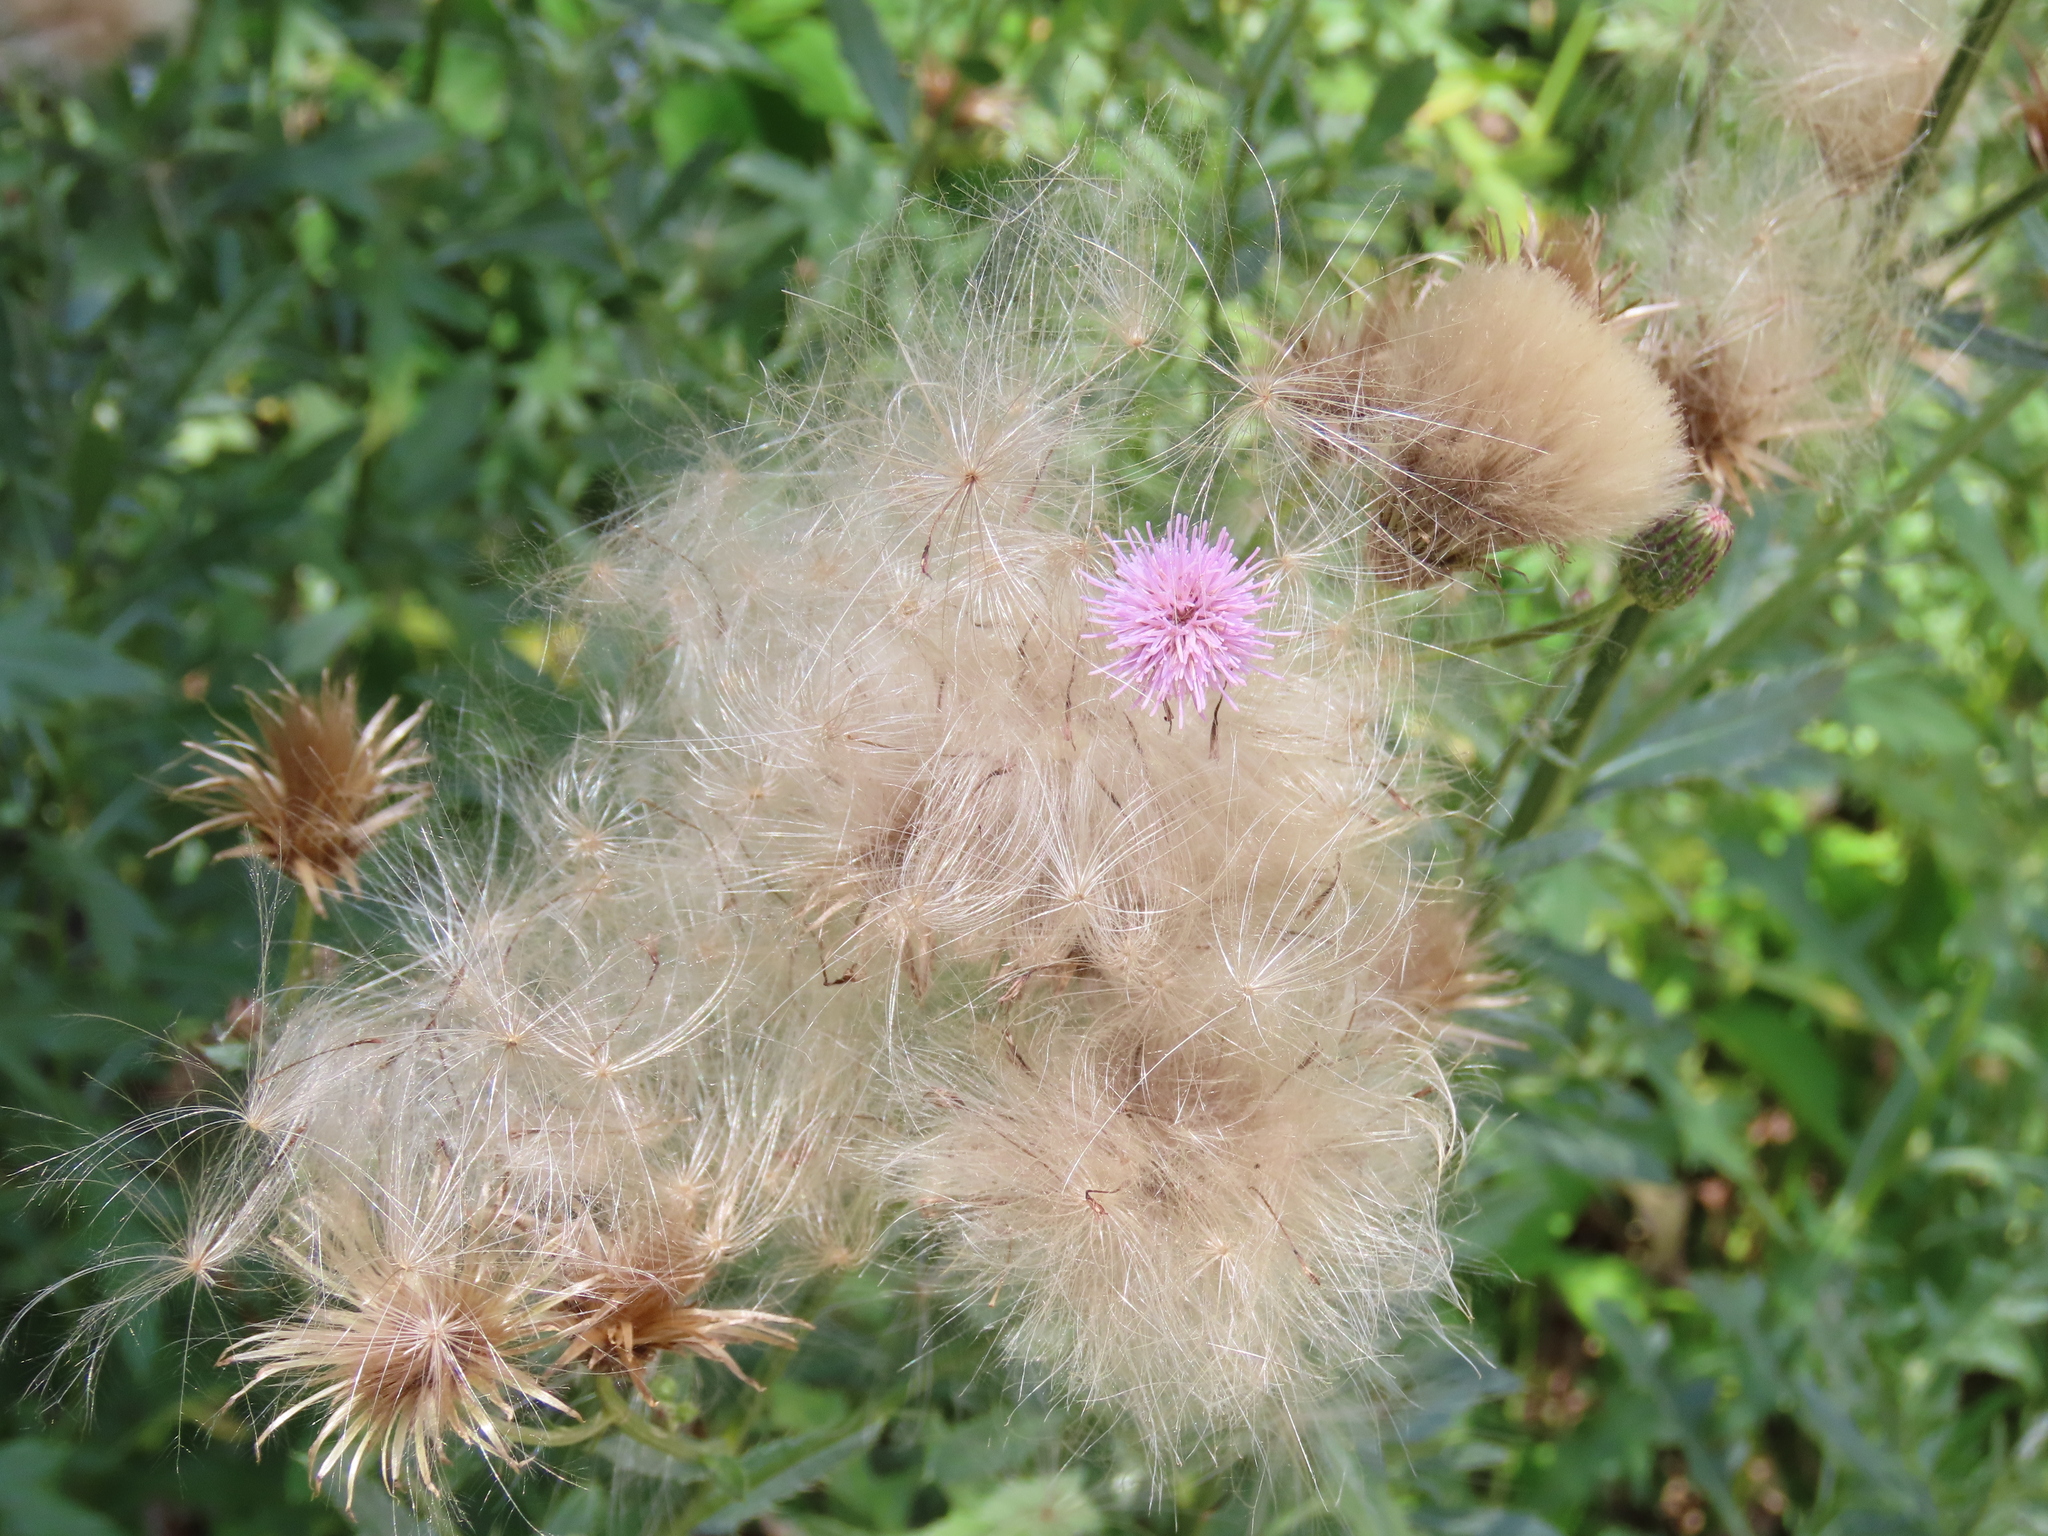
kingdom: Plantae
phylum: Tracheophyta
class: Magnoliopsida
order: Asterales
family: Asteraceae
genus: Cirsium
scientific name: Cirsium arvense
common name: Creeping thistle
